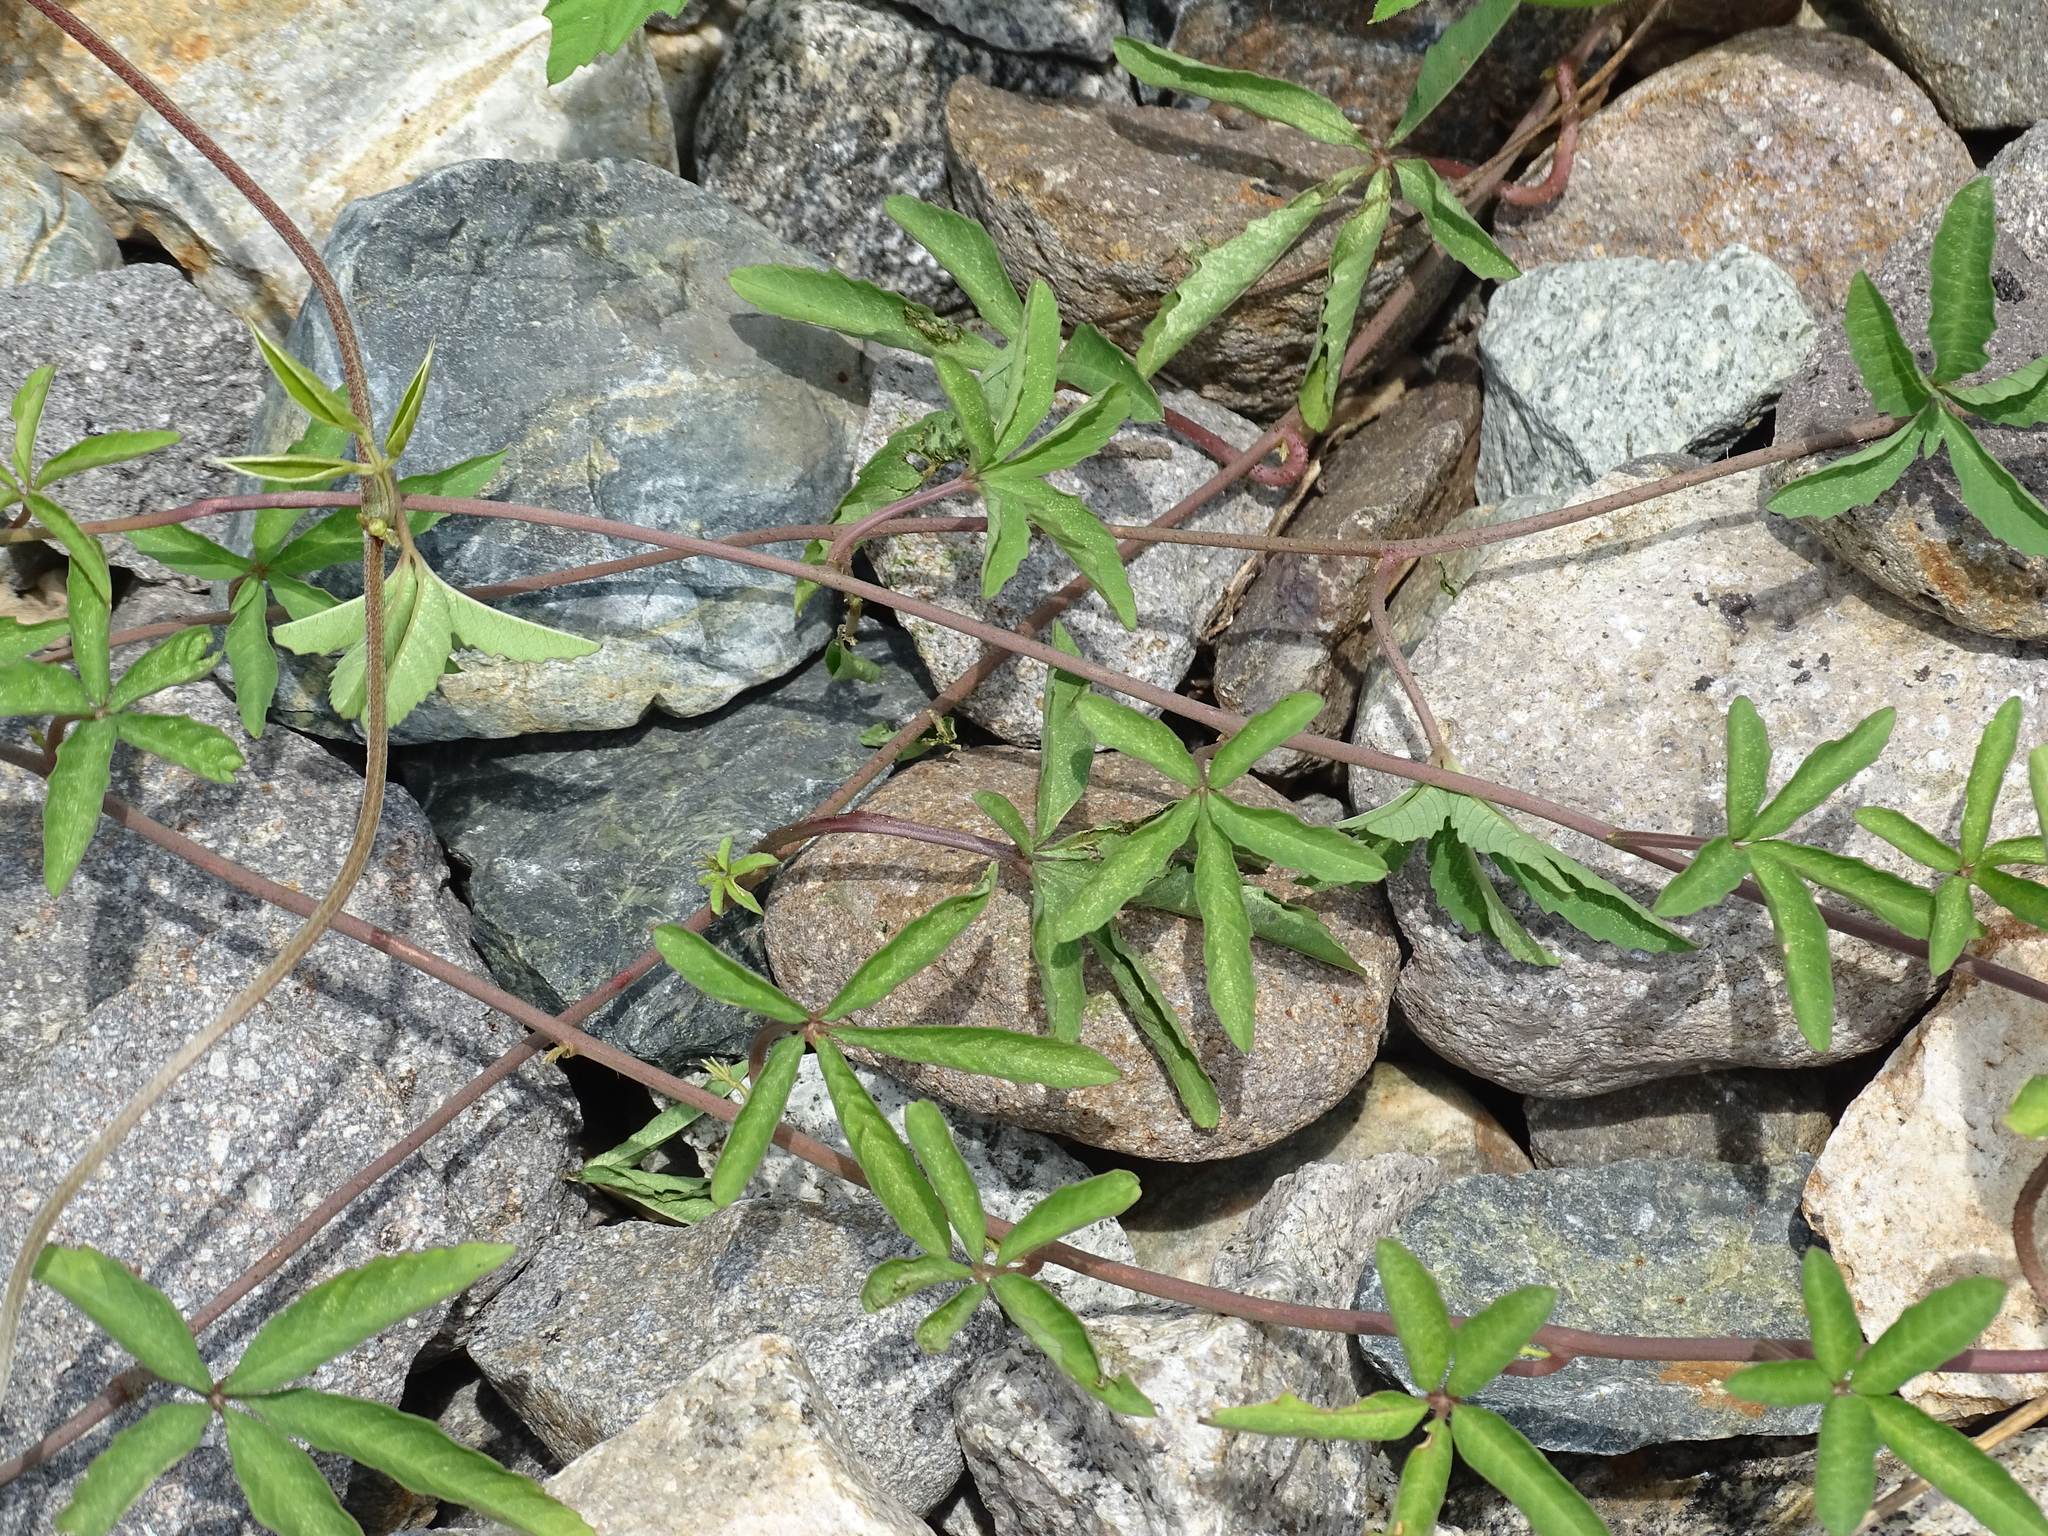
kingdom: Plantae
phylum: Tracheophyta
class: Magnoliopsida
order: Solanales
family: Convolvulaceae
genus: Distimake
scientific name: Distimake quinquefolius
